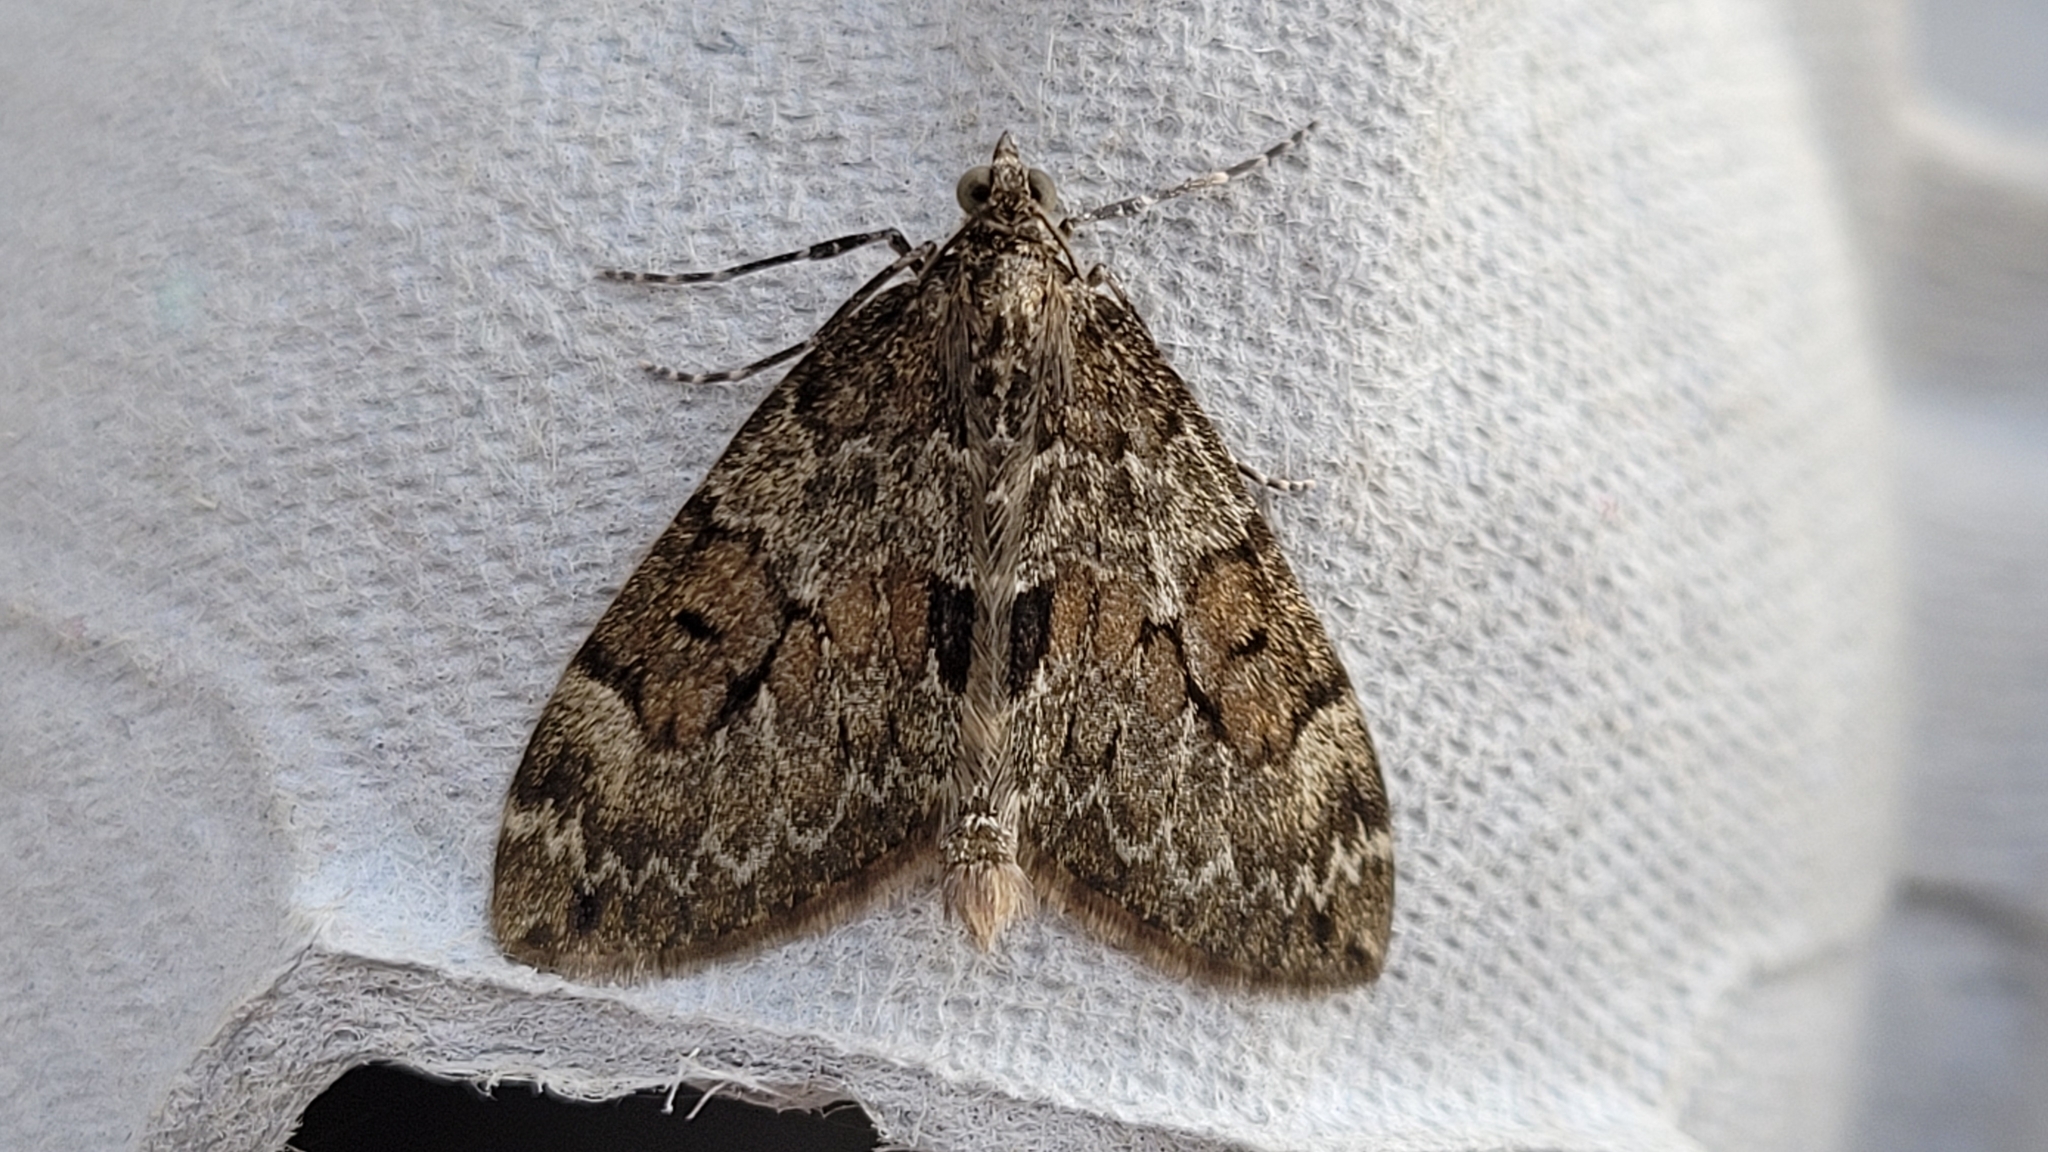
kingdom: Animalia
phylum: Arthropoda
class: Insecta
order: Lepidoptera
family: Geometridae
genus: Thera
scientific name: Thera britannica
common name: Spruce carpet
